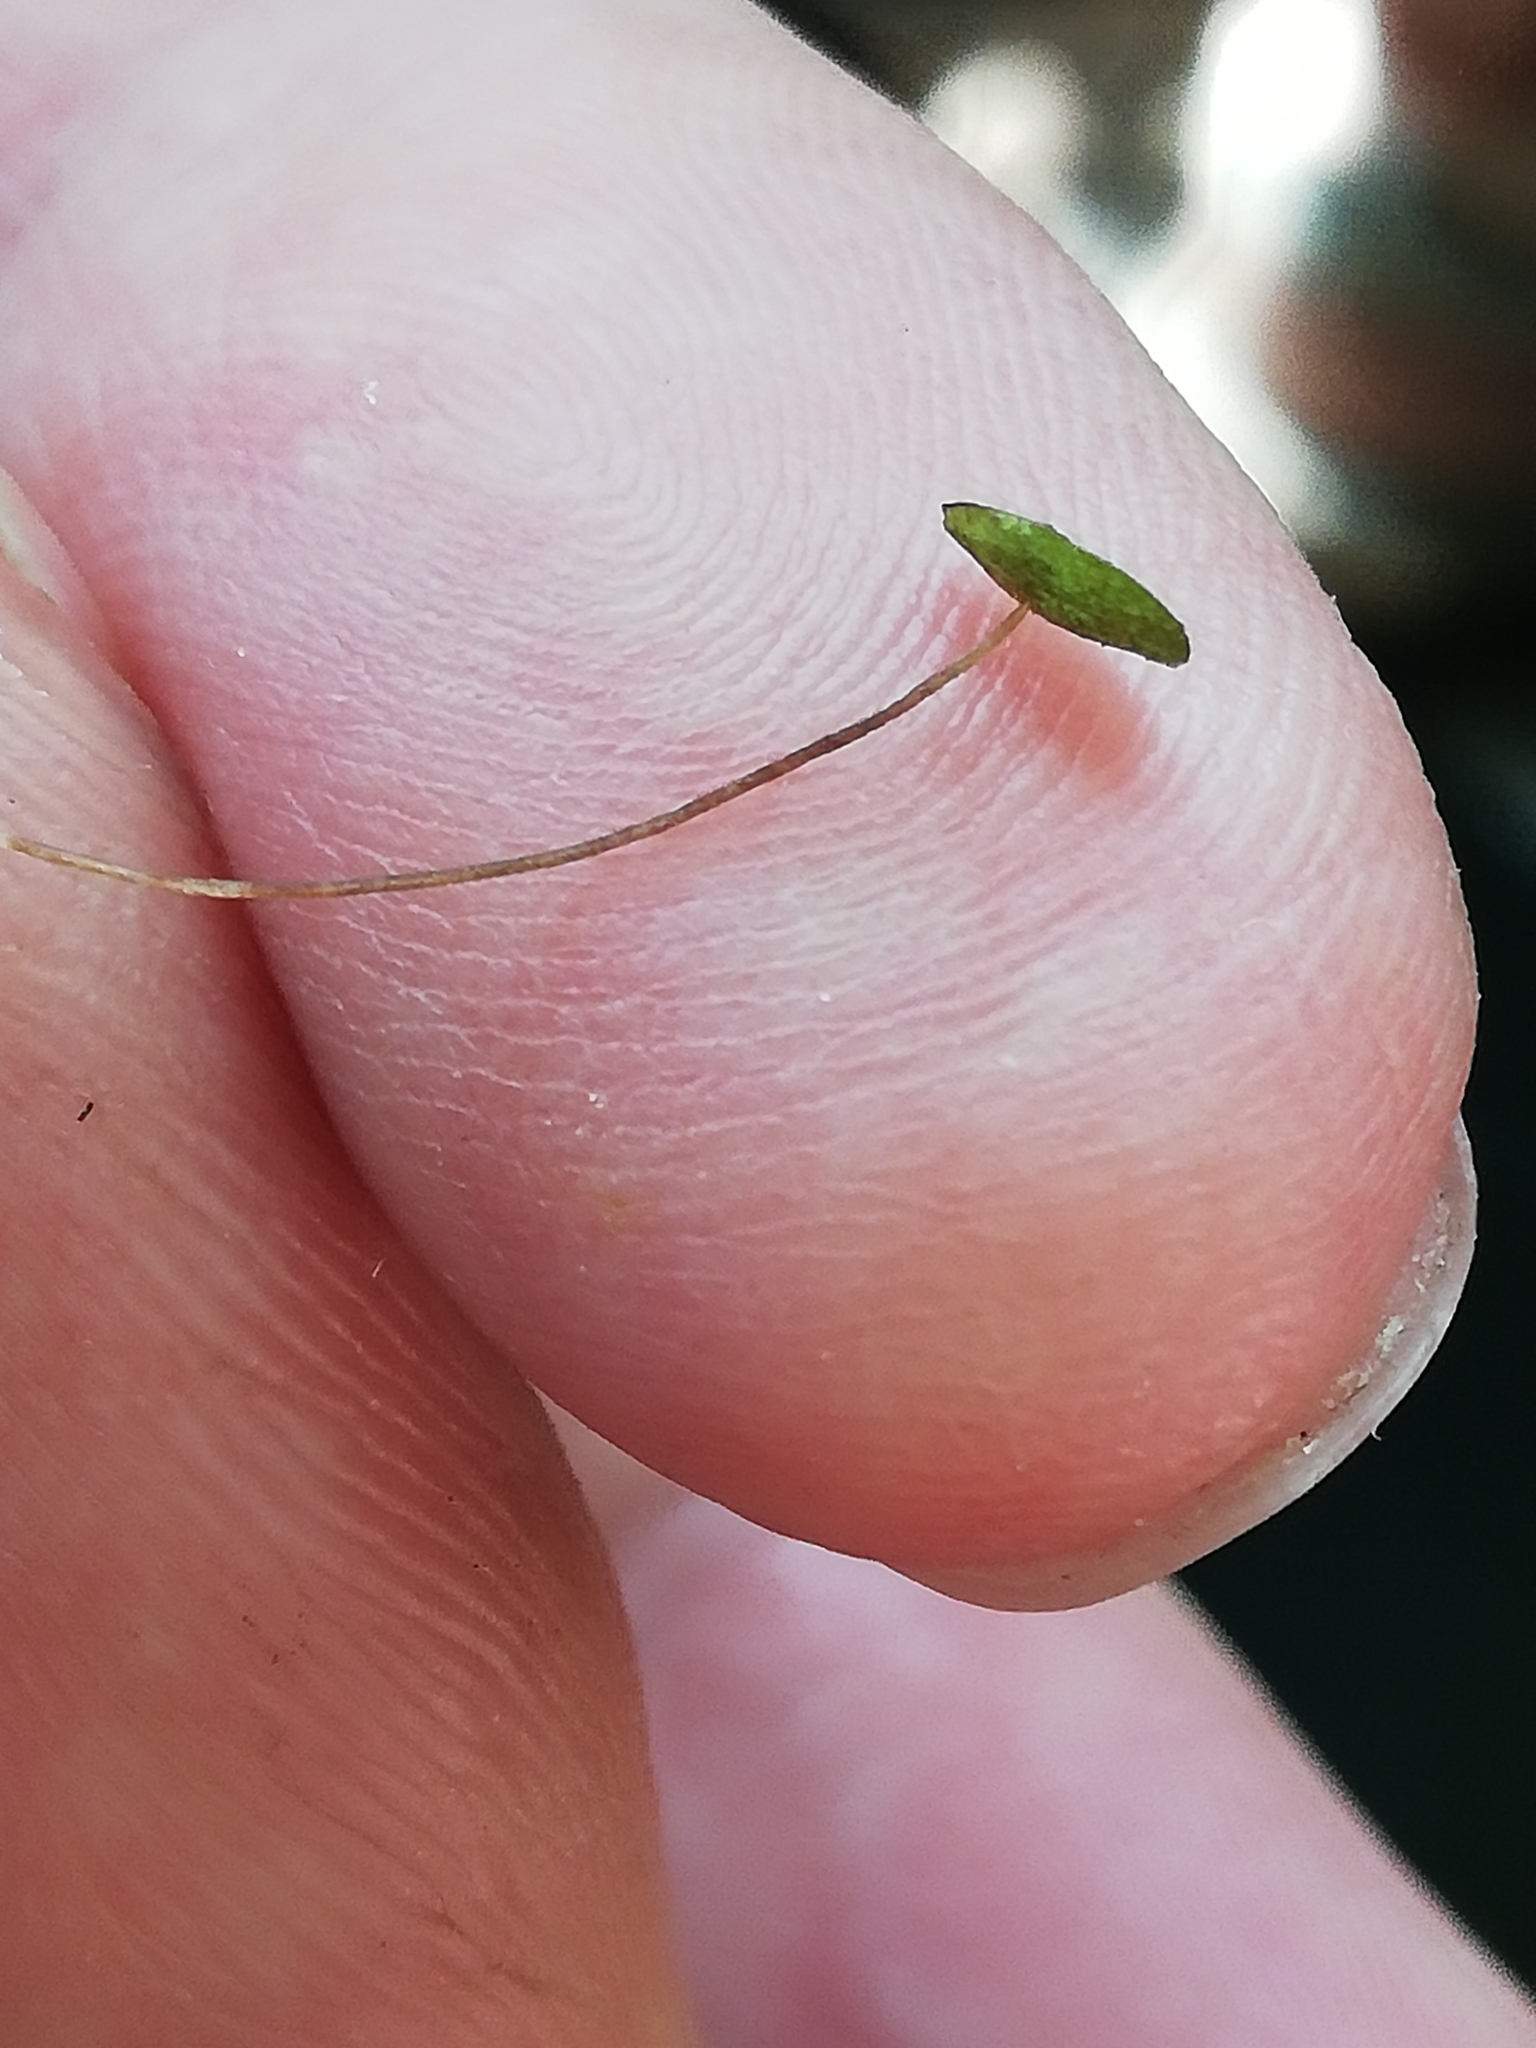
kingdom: Plantae
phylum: Tracheophyta
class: Liliopsida
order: Alismatales
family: Araceae
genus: Lemna
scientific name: Lemna minor
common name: Common duckweed
